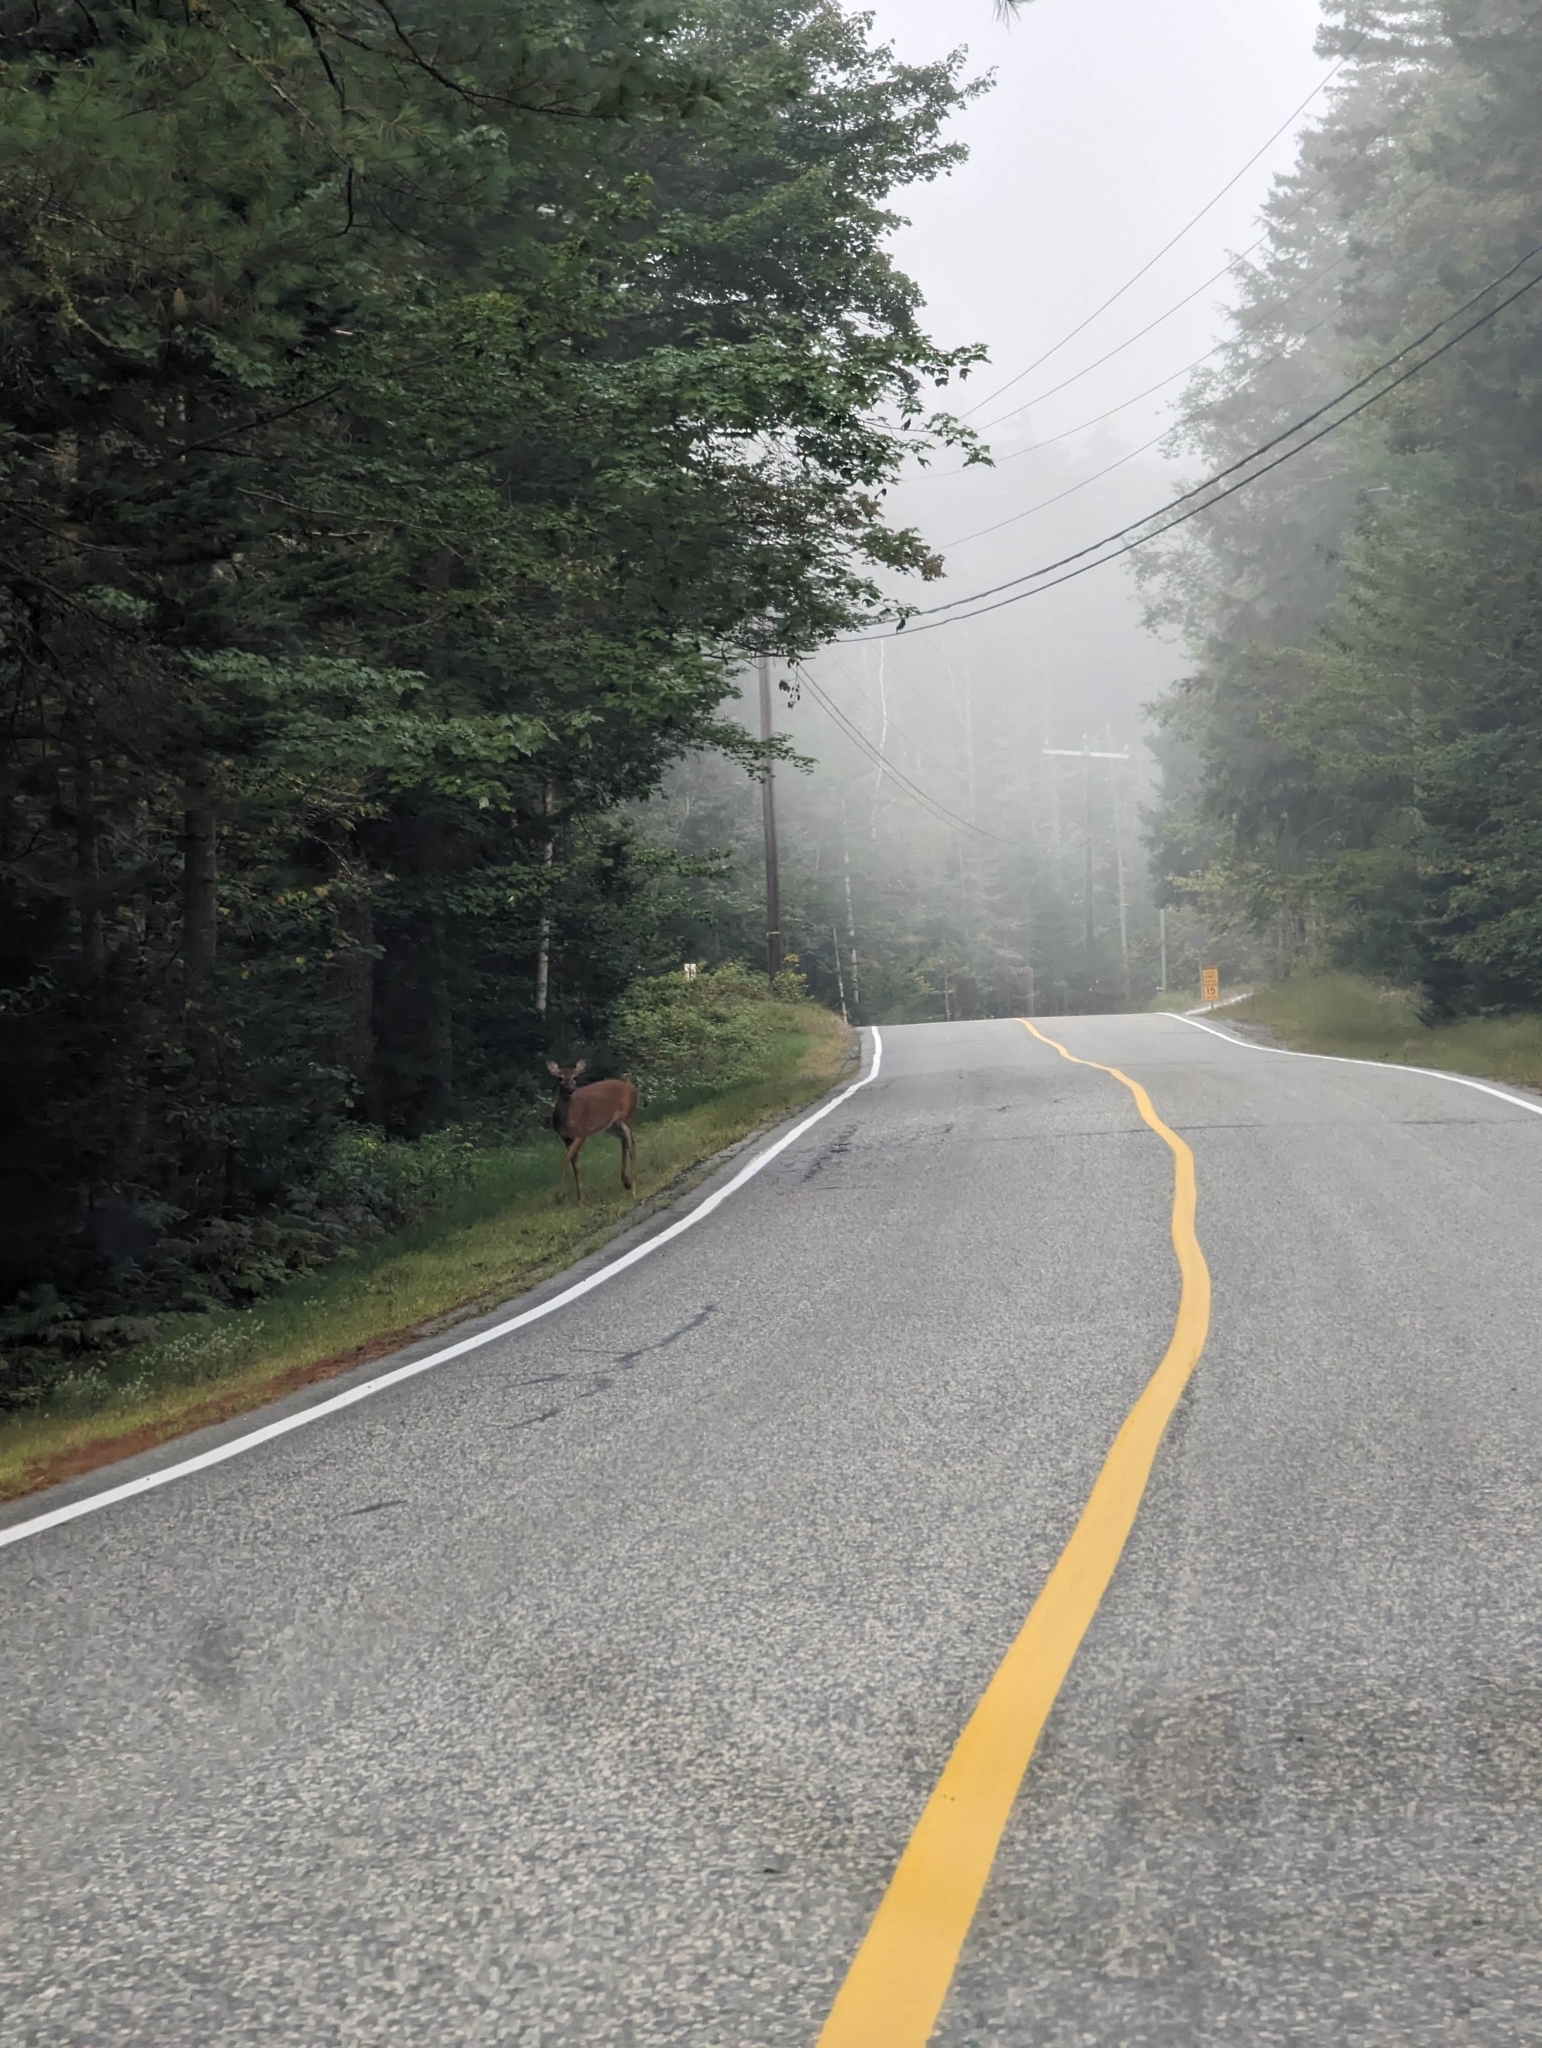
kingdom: Animalia
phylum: Chordata
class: Mammalia
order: Artiodactyla
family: Cervidae
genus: Odocoileus
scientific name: Odocoileus virginianus
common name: White-tailed deer
